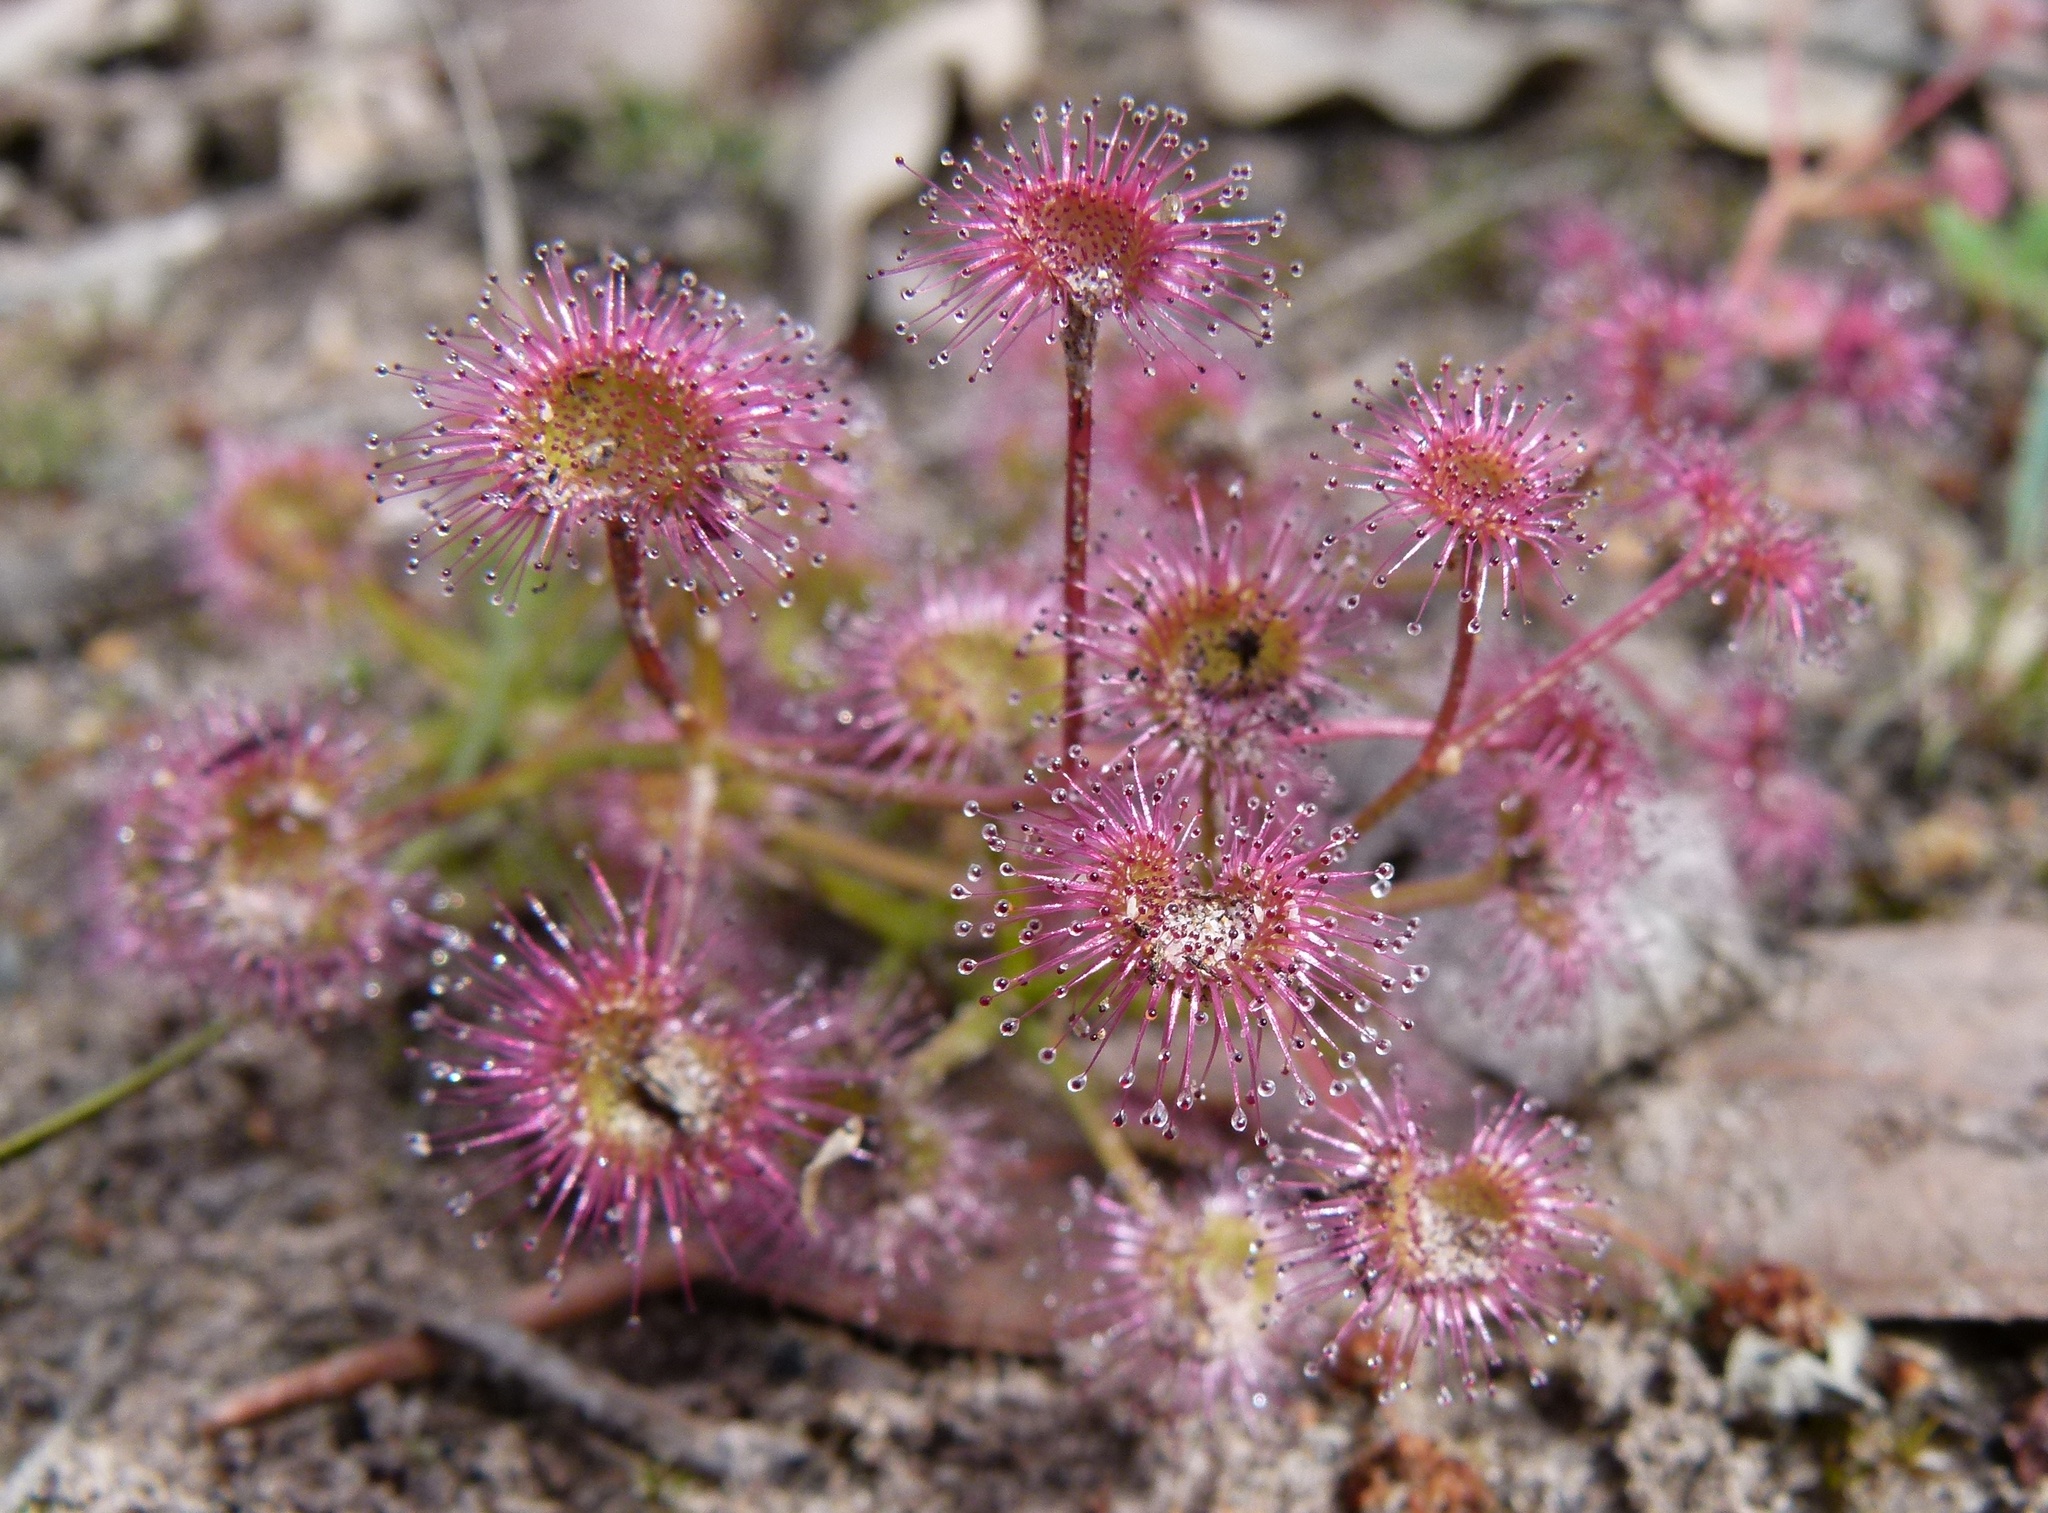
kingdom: Plantae
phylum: Tracheophyta
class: Magnoliopsida
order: Caryophyllales
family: Droseraceae
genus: Drosera
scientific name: Drosera stolonifera
